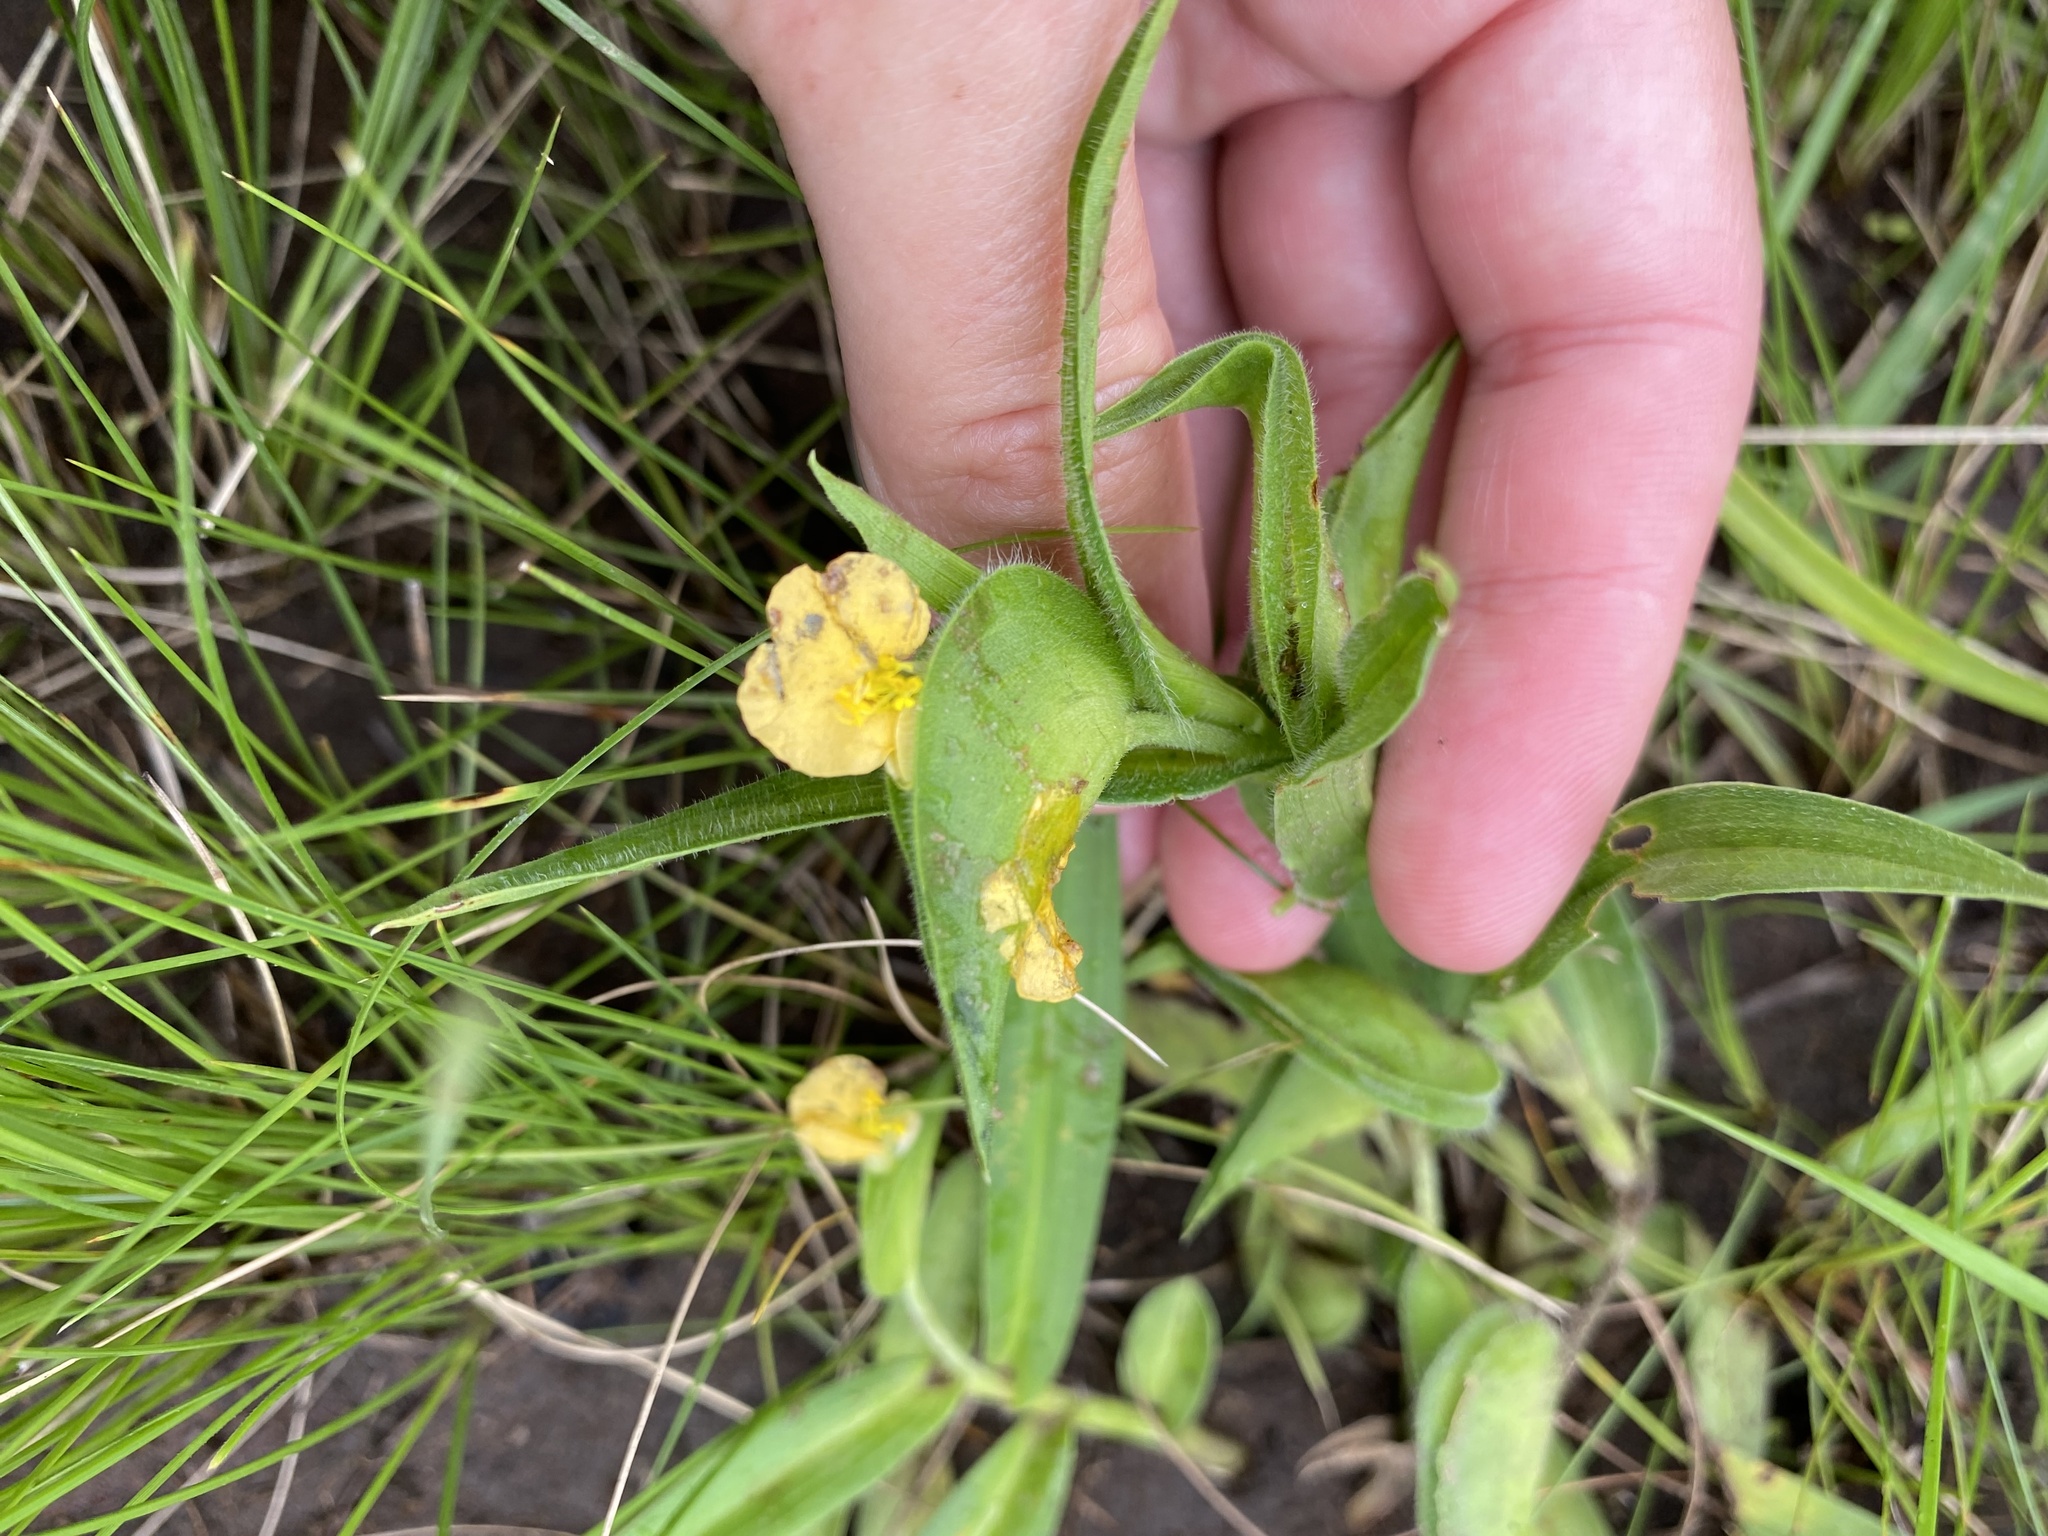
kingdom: Plantae
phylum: Tracheophyta
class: Liliopsida
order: Commelinales
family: Commelinaceae
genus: Commelina
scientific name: Commelina africana
